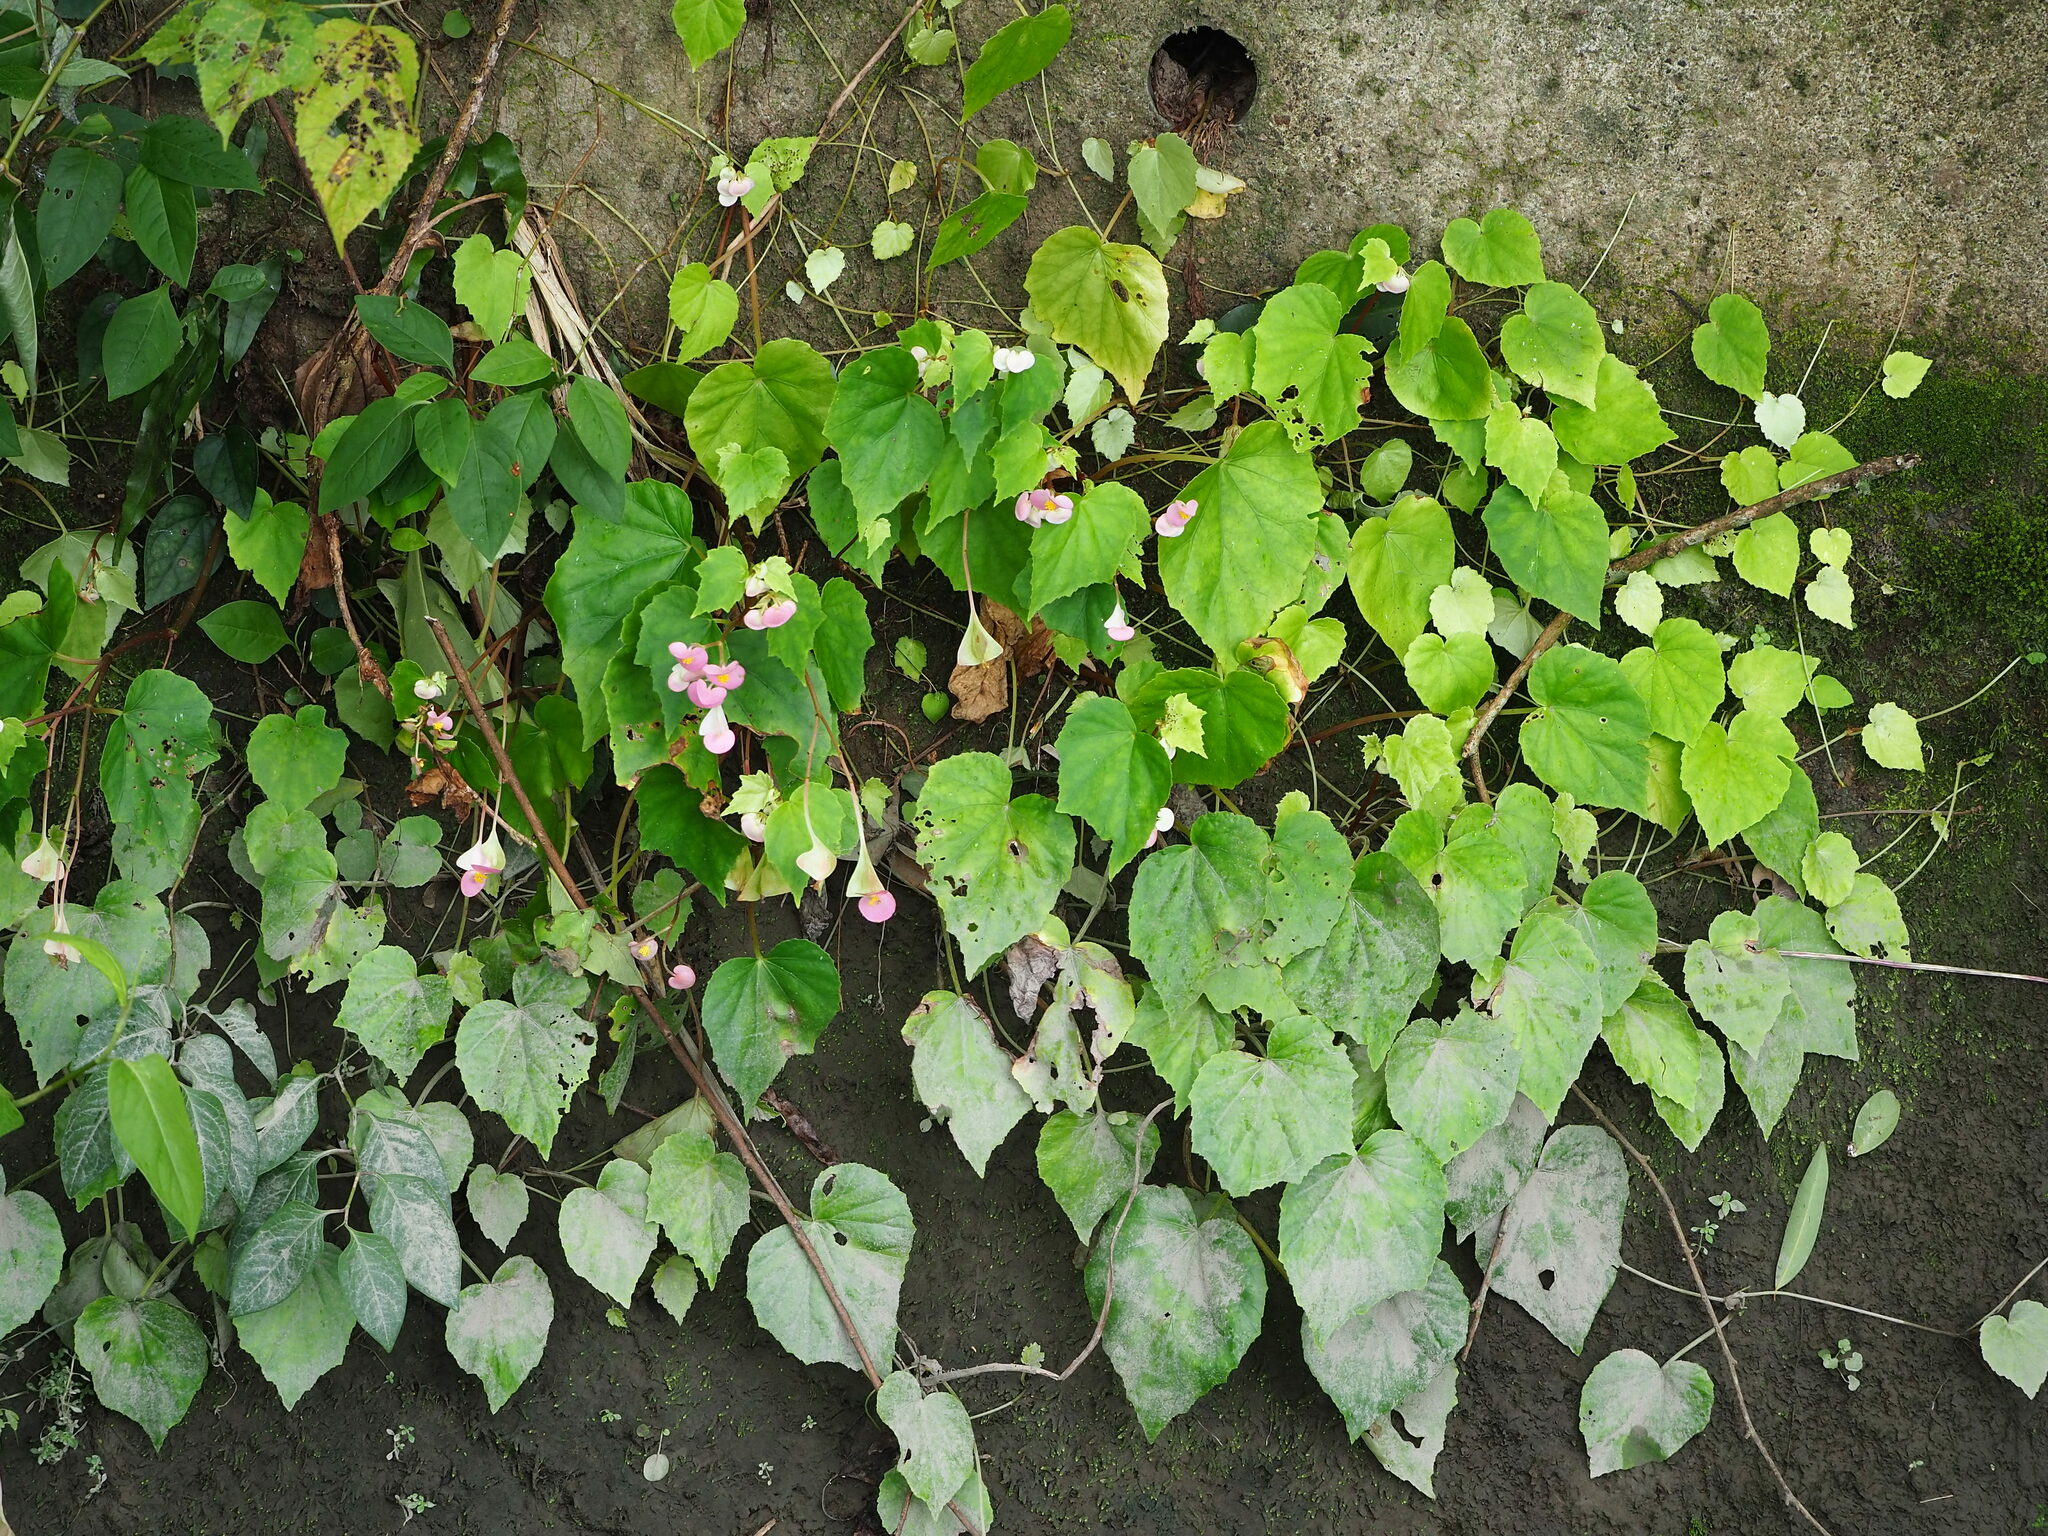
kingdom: Plantae
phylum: Tracheophyta
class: Magnoliopsida
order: Cucurbitales
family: Begoniaceae
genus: Begonia
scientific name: Begonia ravenii
